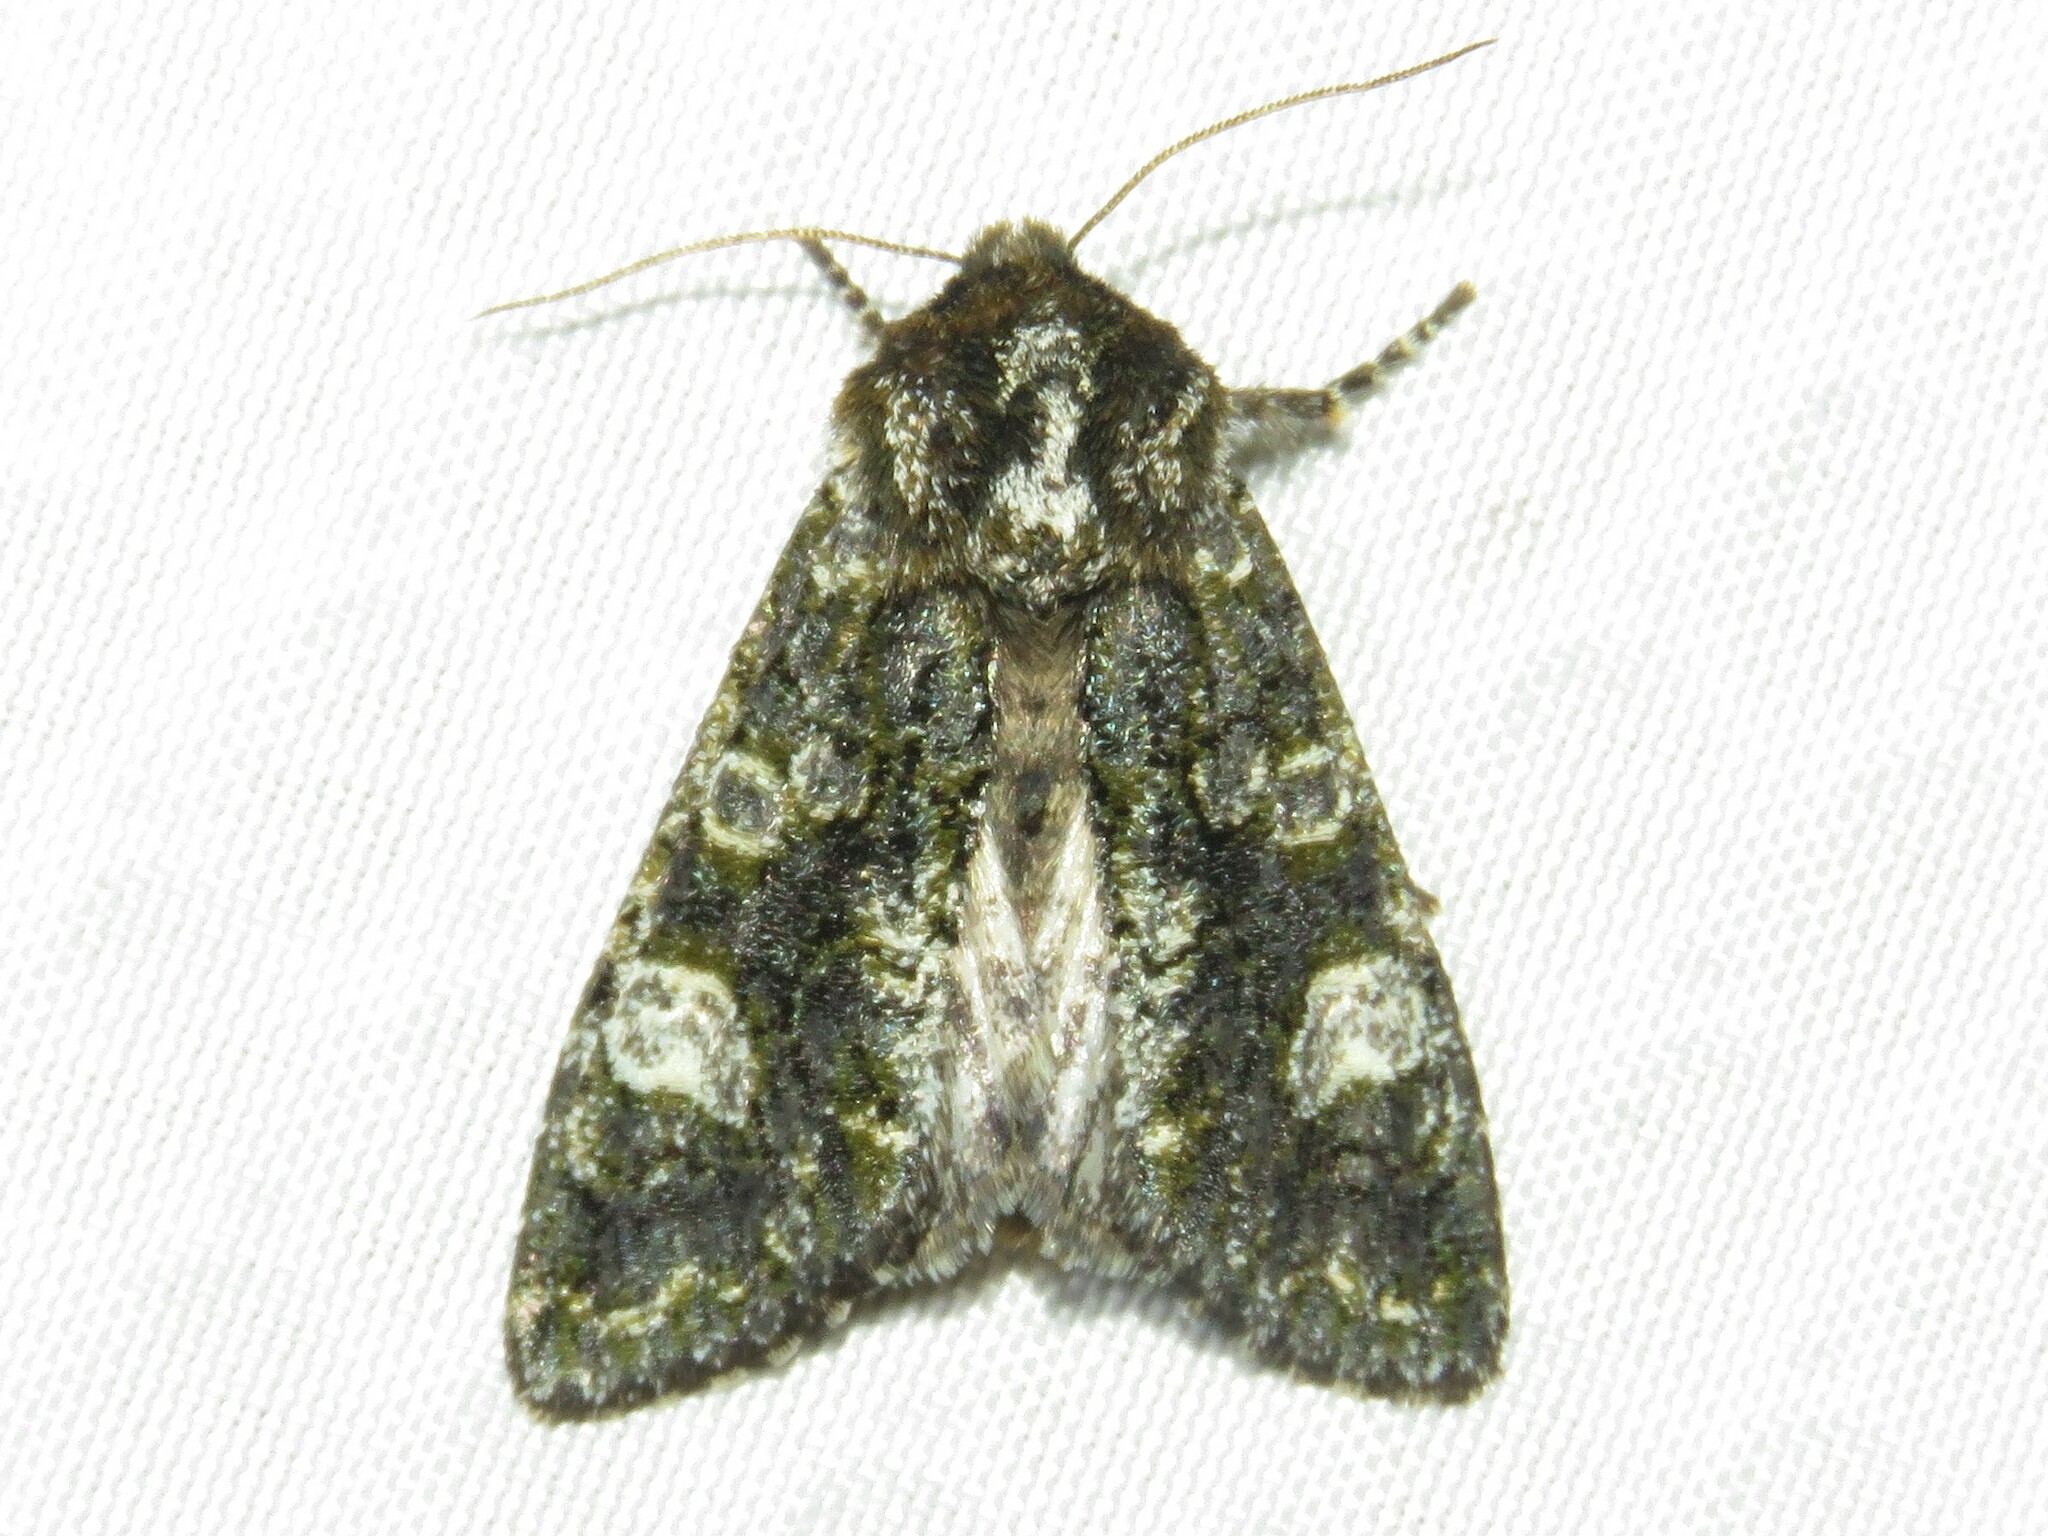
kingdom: Animalia
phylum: Arthropoda
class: Insecta
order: Lepidoptera
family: Noctuidae
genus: Psaphida
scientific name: Psaphida grotei
